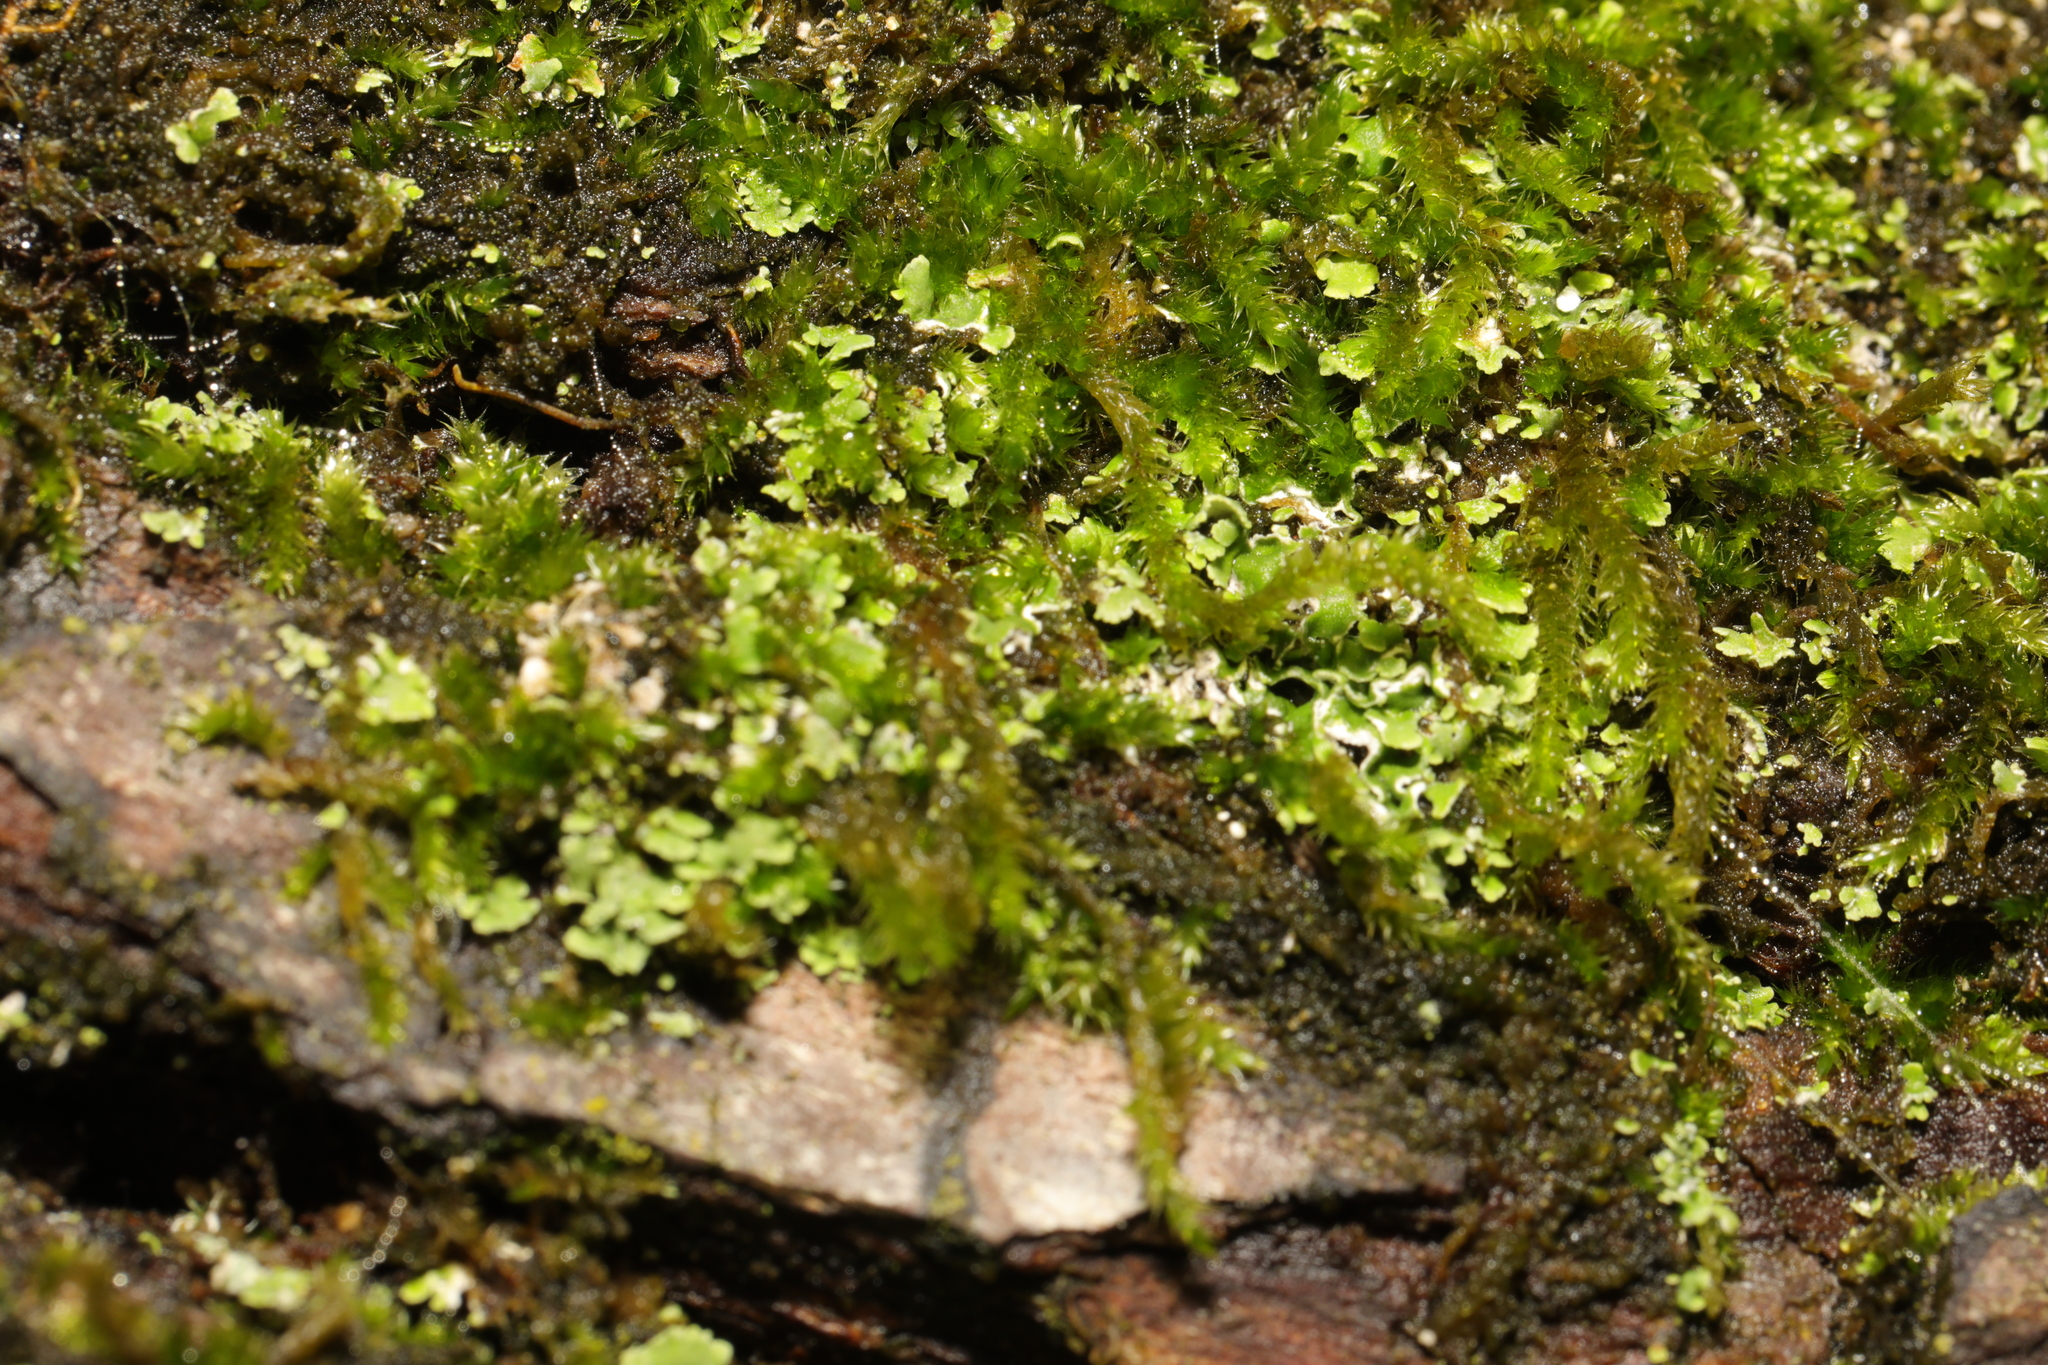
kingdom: Fungi
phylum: Ascomycota
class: Lecanoromycetes
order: Lecanorales
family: Cladoniaceae
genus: Cladonia
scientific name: Cladonia
